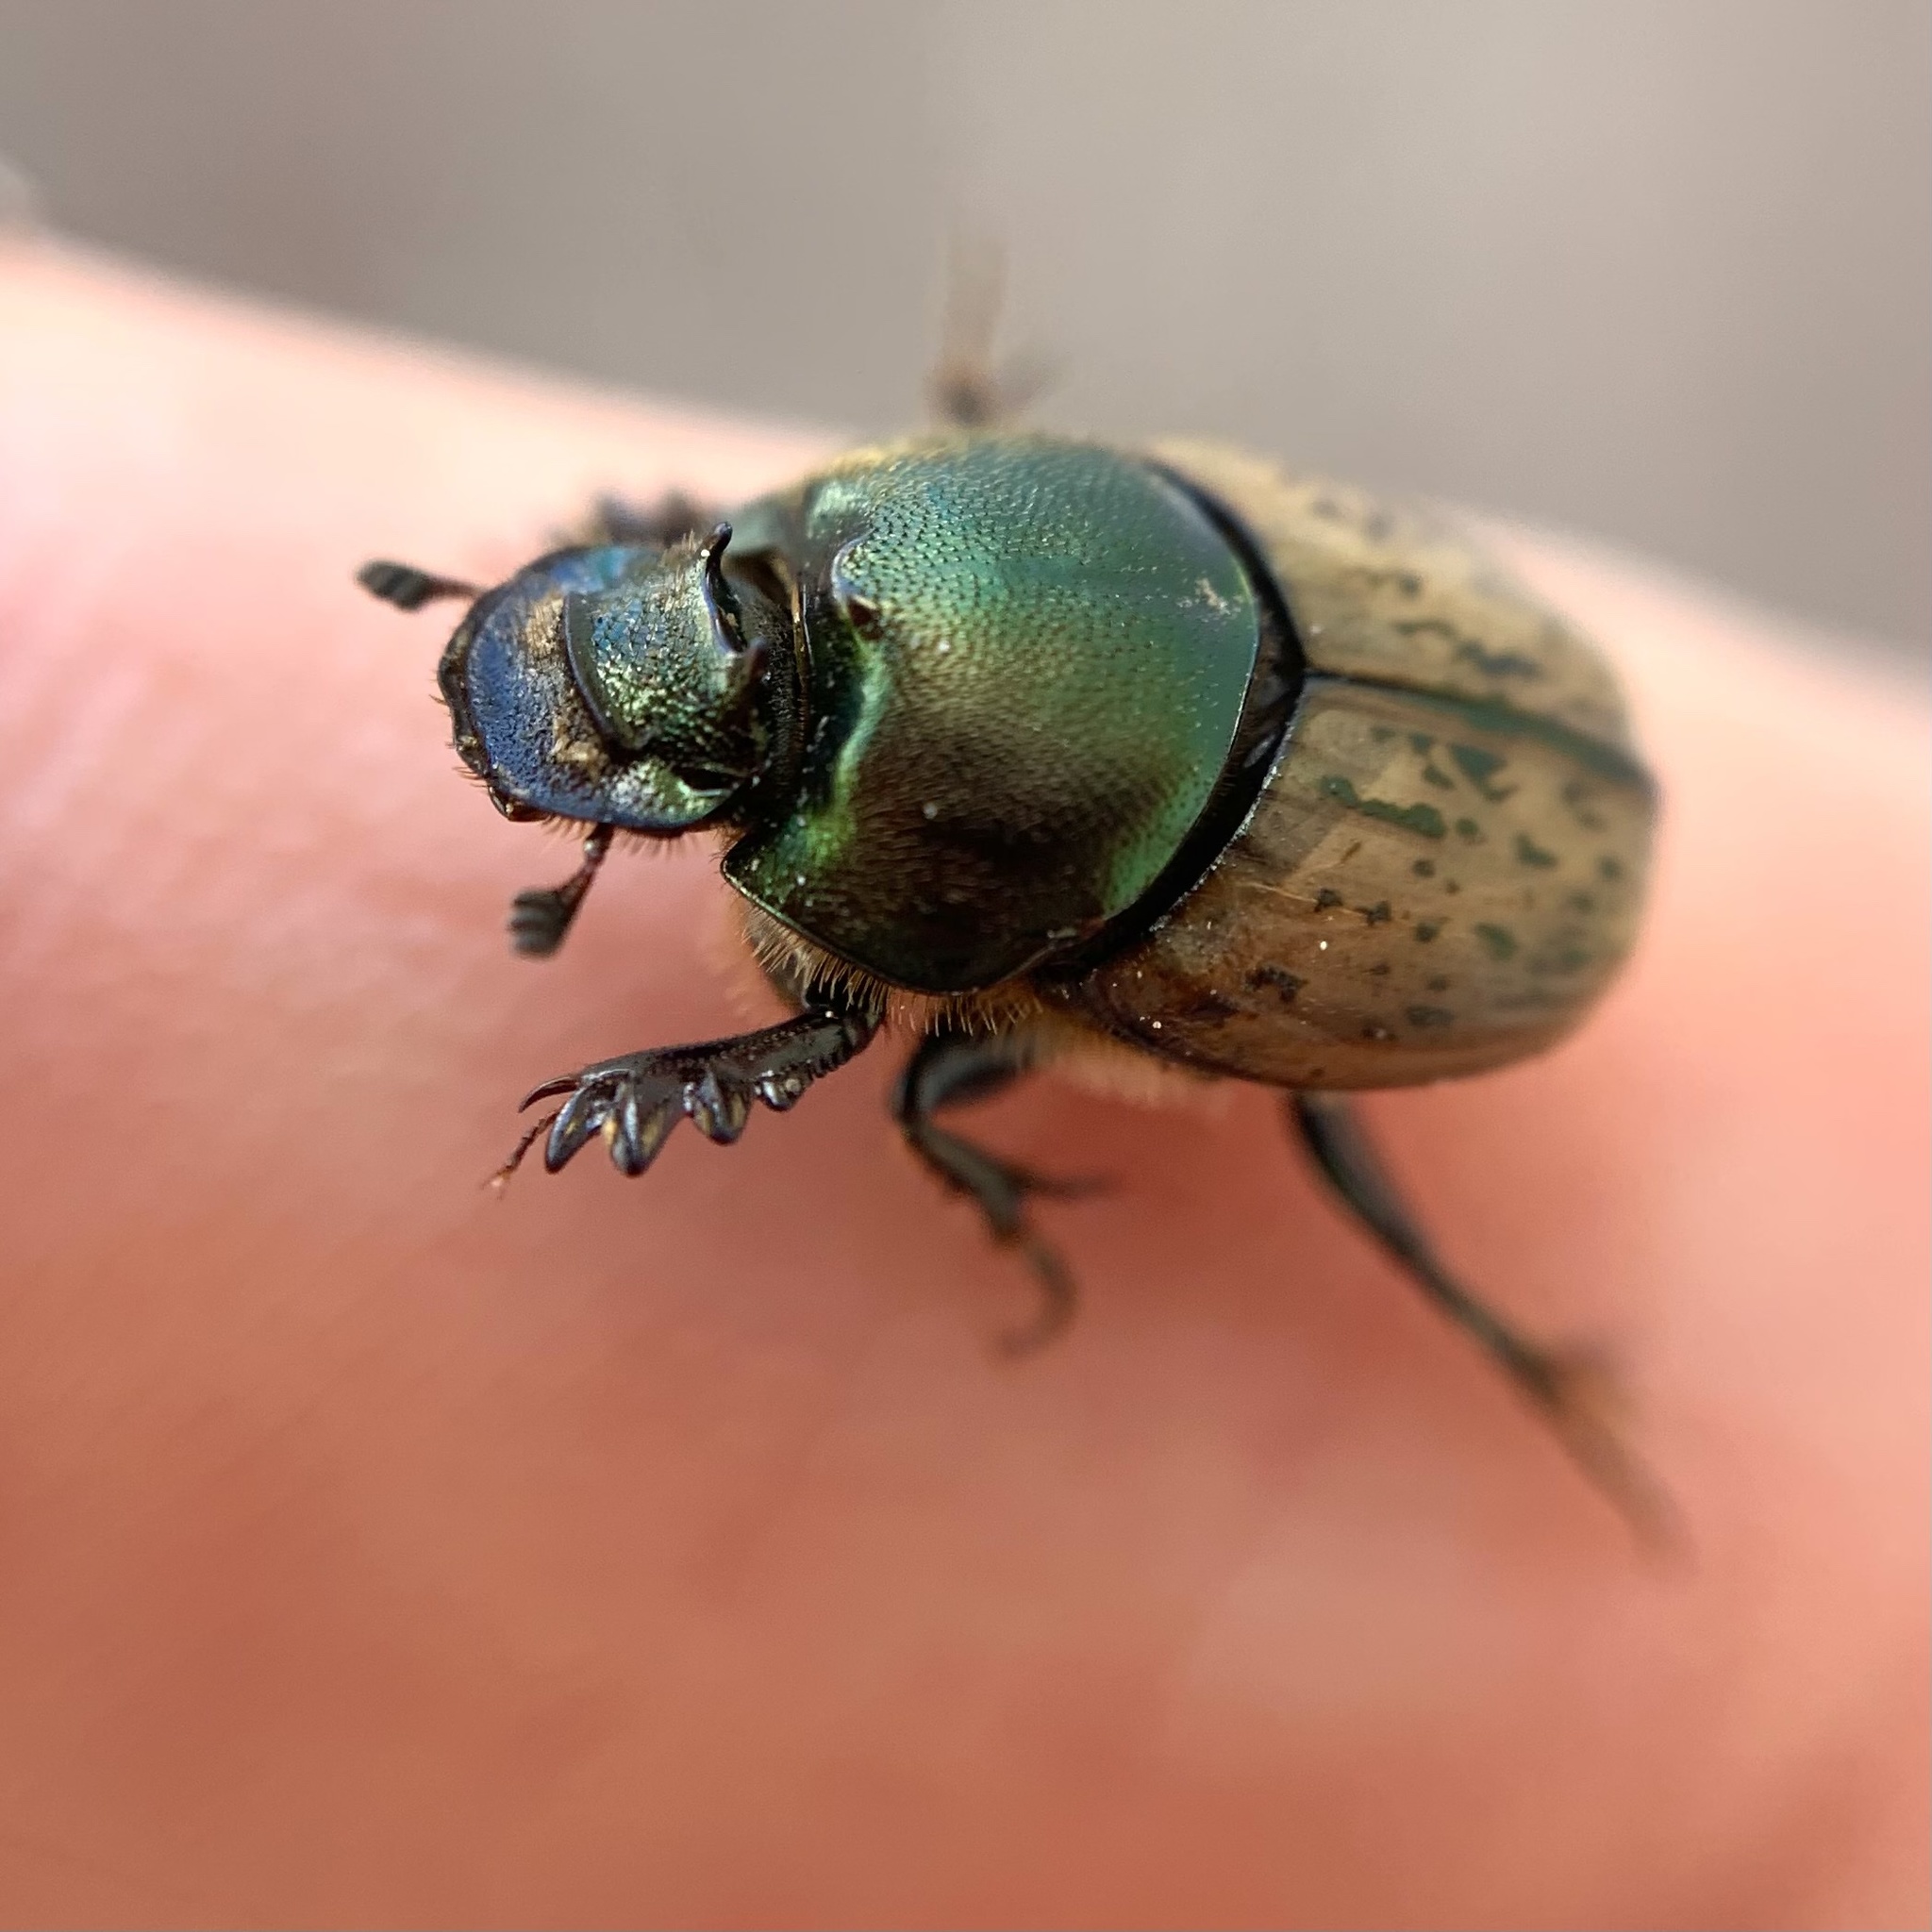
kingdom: Animalia
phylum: Arthropoda
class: Insecta
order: Coleoptera
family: Scarabaeidae
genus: Onthophagus
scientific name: Onthophagus vacca
